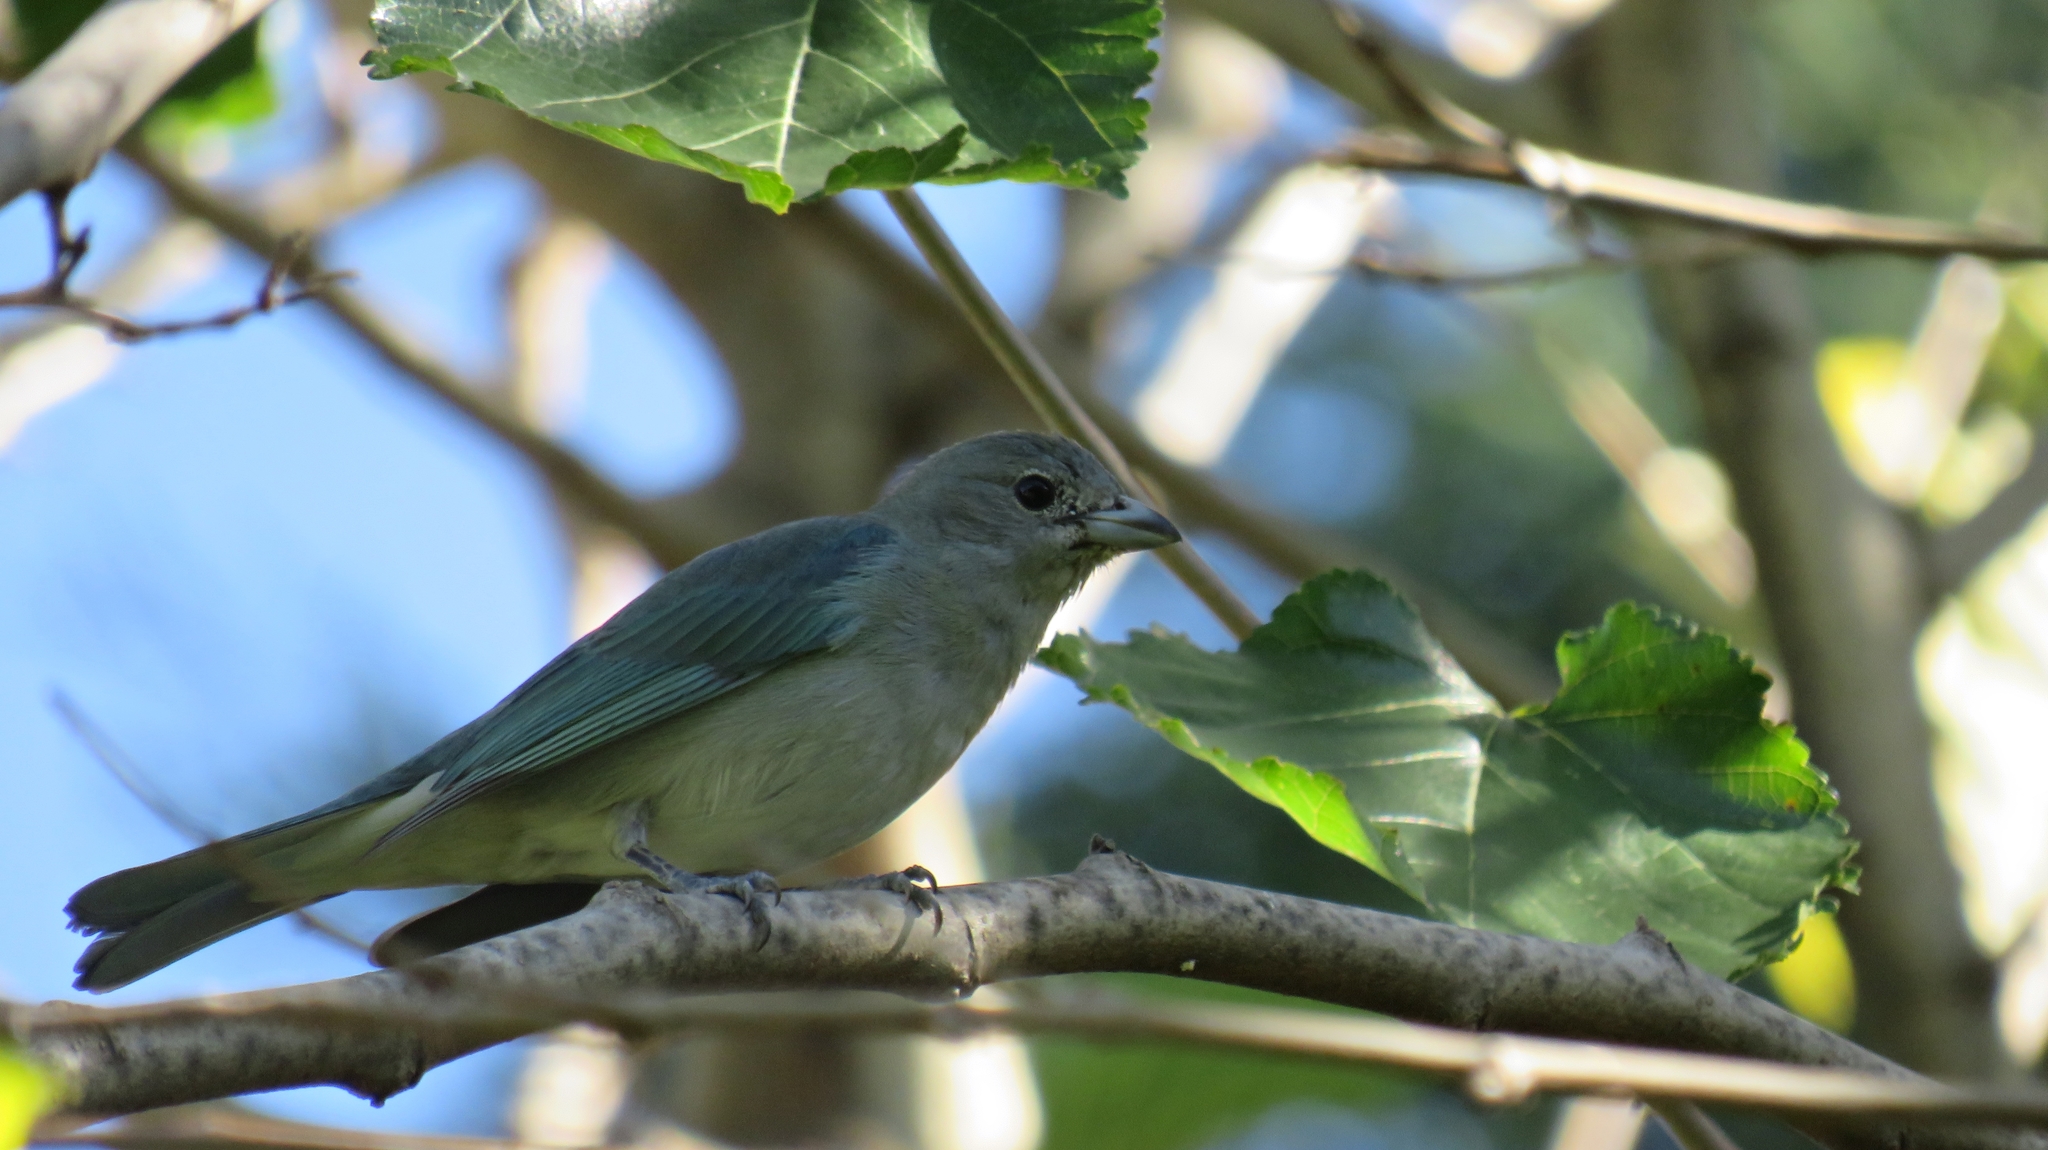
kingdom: Animalia
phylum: Chordata
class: Aves
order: Passeriformes
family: Thraupidae
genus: Thraupis
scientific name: Thraupis sayaca
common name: Sayaca tanager
